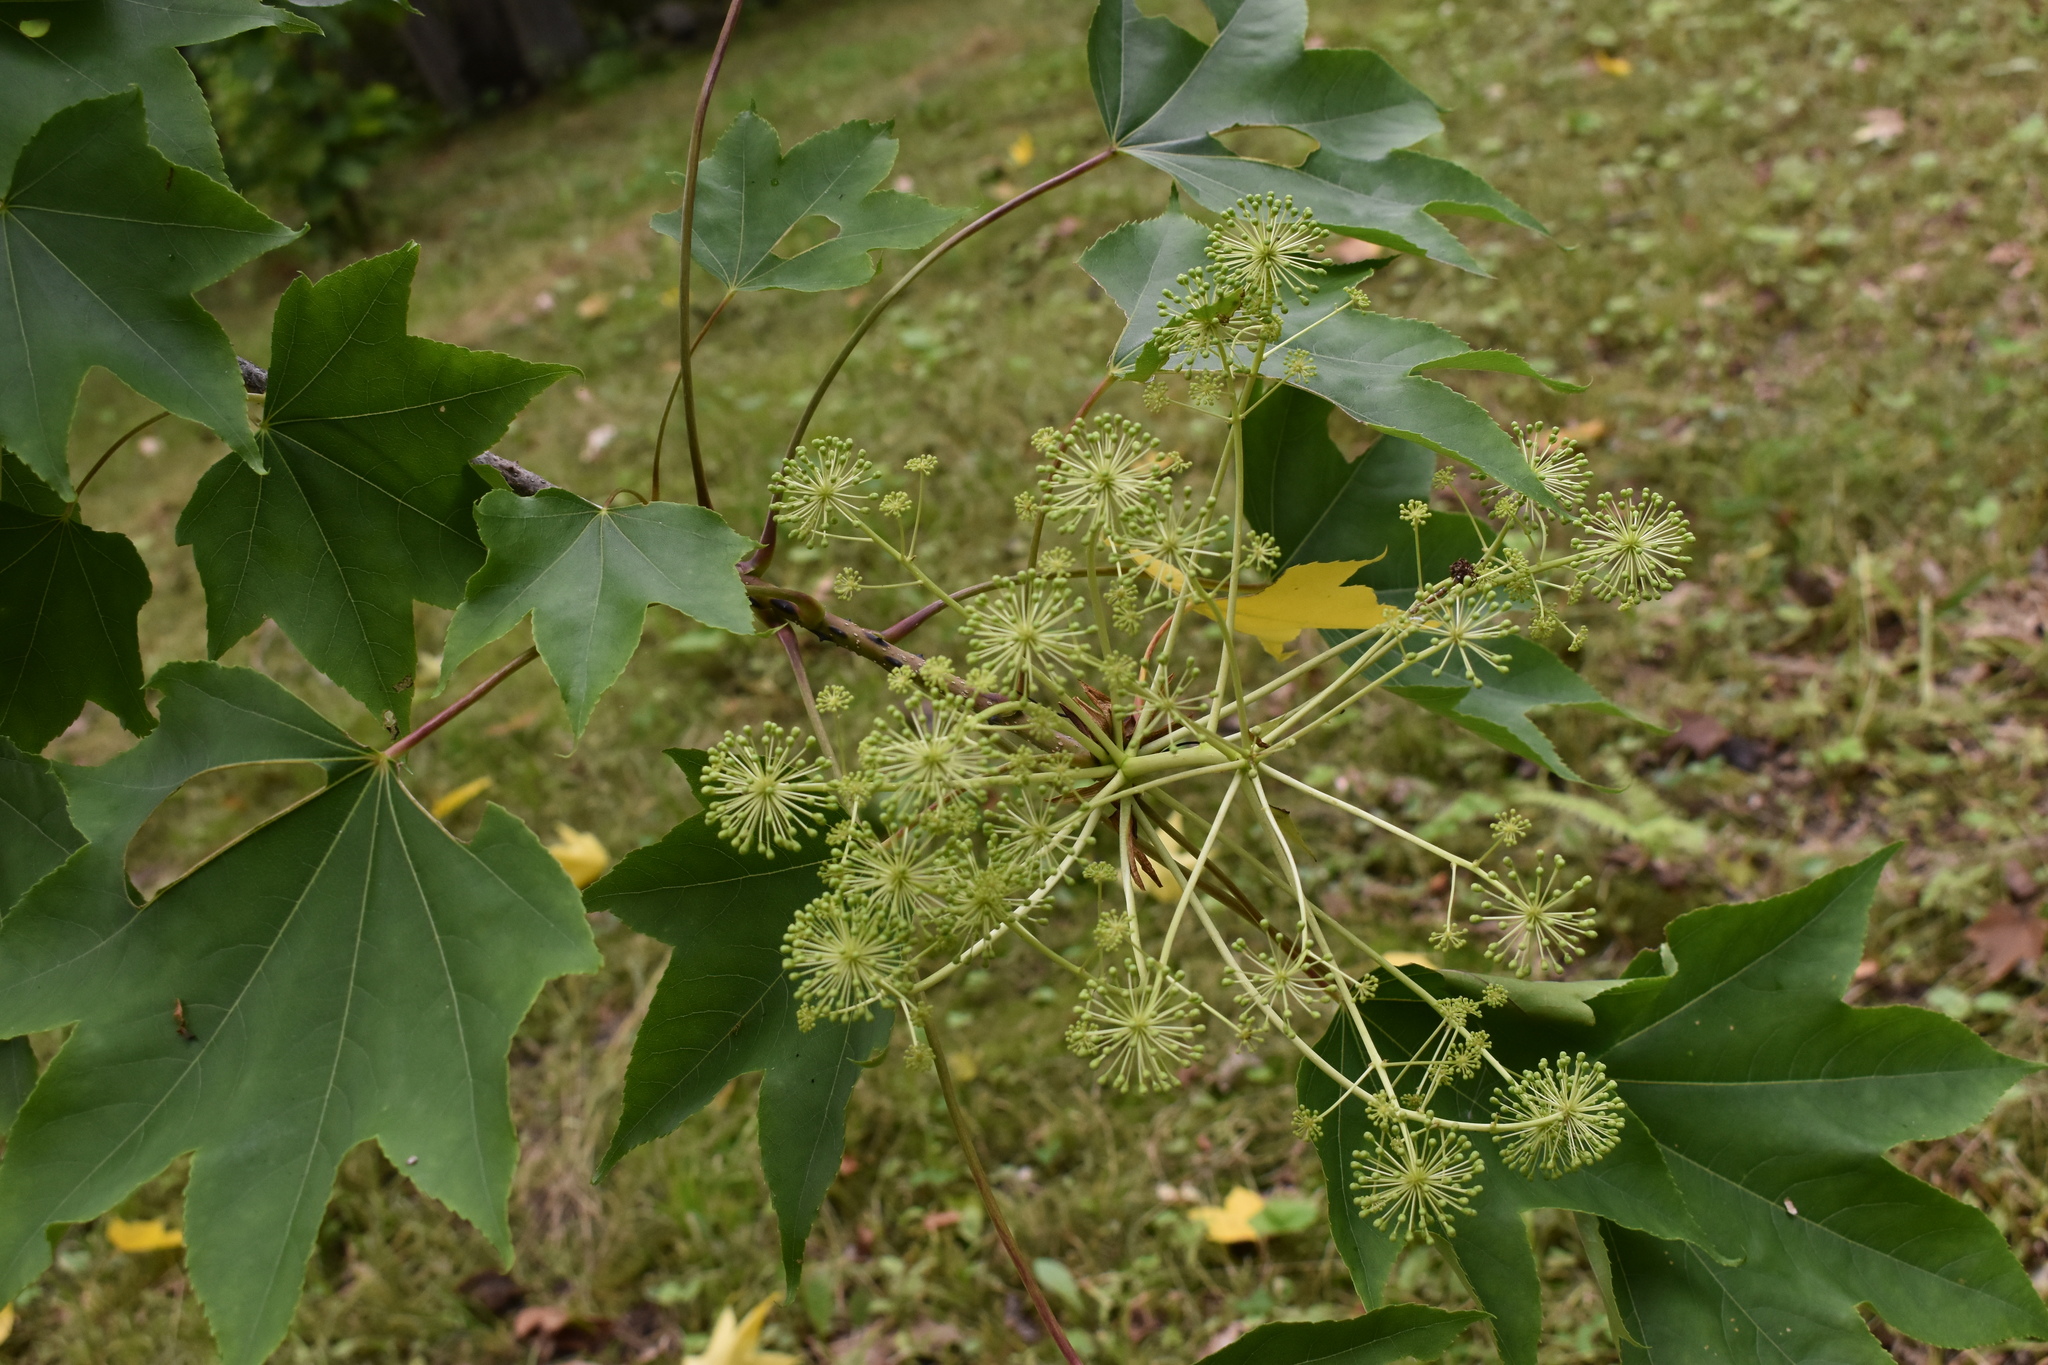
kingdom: Plantae
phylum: Tracheophyta
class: Magnoliopsida
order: Apiales
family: Araliaceae
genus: Kalopanax
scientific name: Kalopanax septemlobus
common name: Castor aralia
